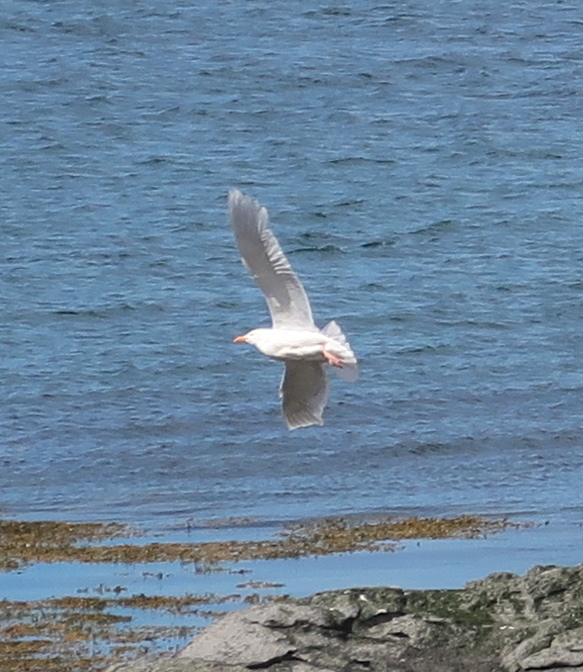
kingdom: Animalia
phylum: Chordata
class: Aves
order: Charadriiformes
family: Laridae
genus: Larus
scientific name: Larus hyperboreus
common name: Glaucous gull
